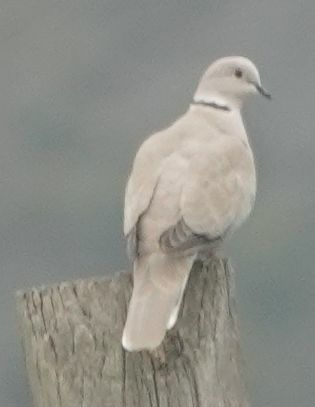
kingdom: Animalia
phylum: Chordata
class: Aves
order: Columbiformes
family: Columbidae
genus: Streptopelia
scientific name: Streptopelia decaocto
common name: Eurasian collared dove
